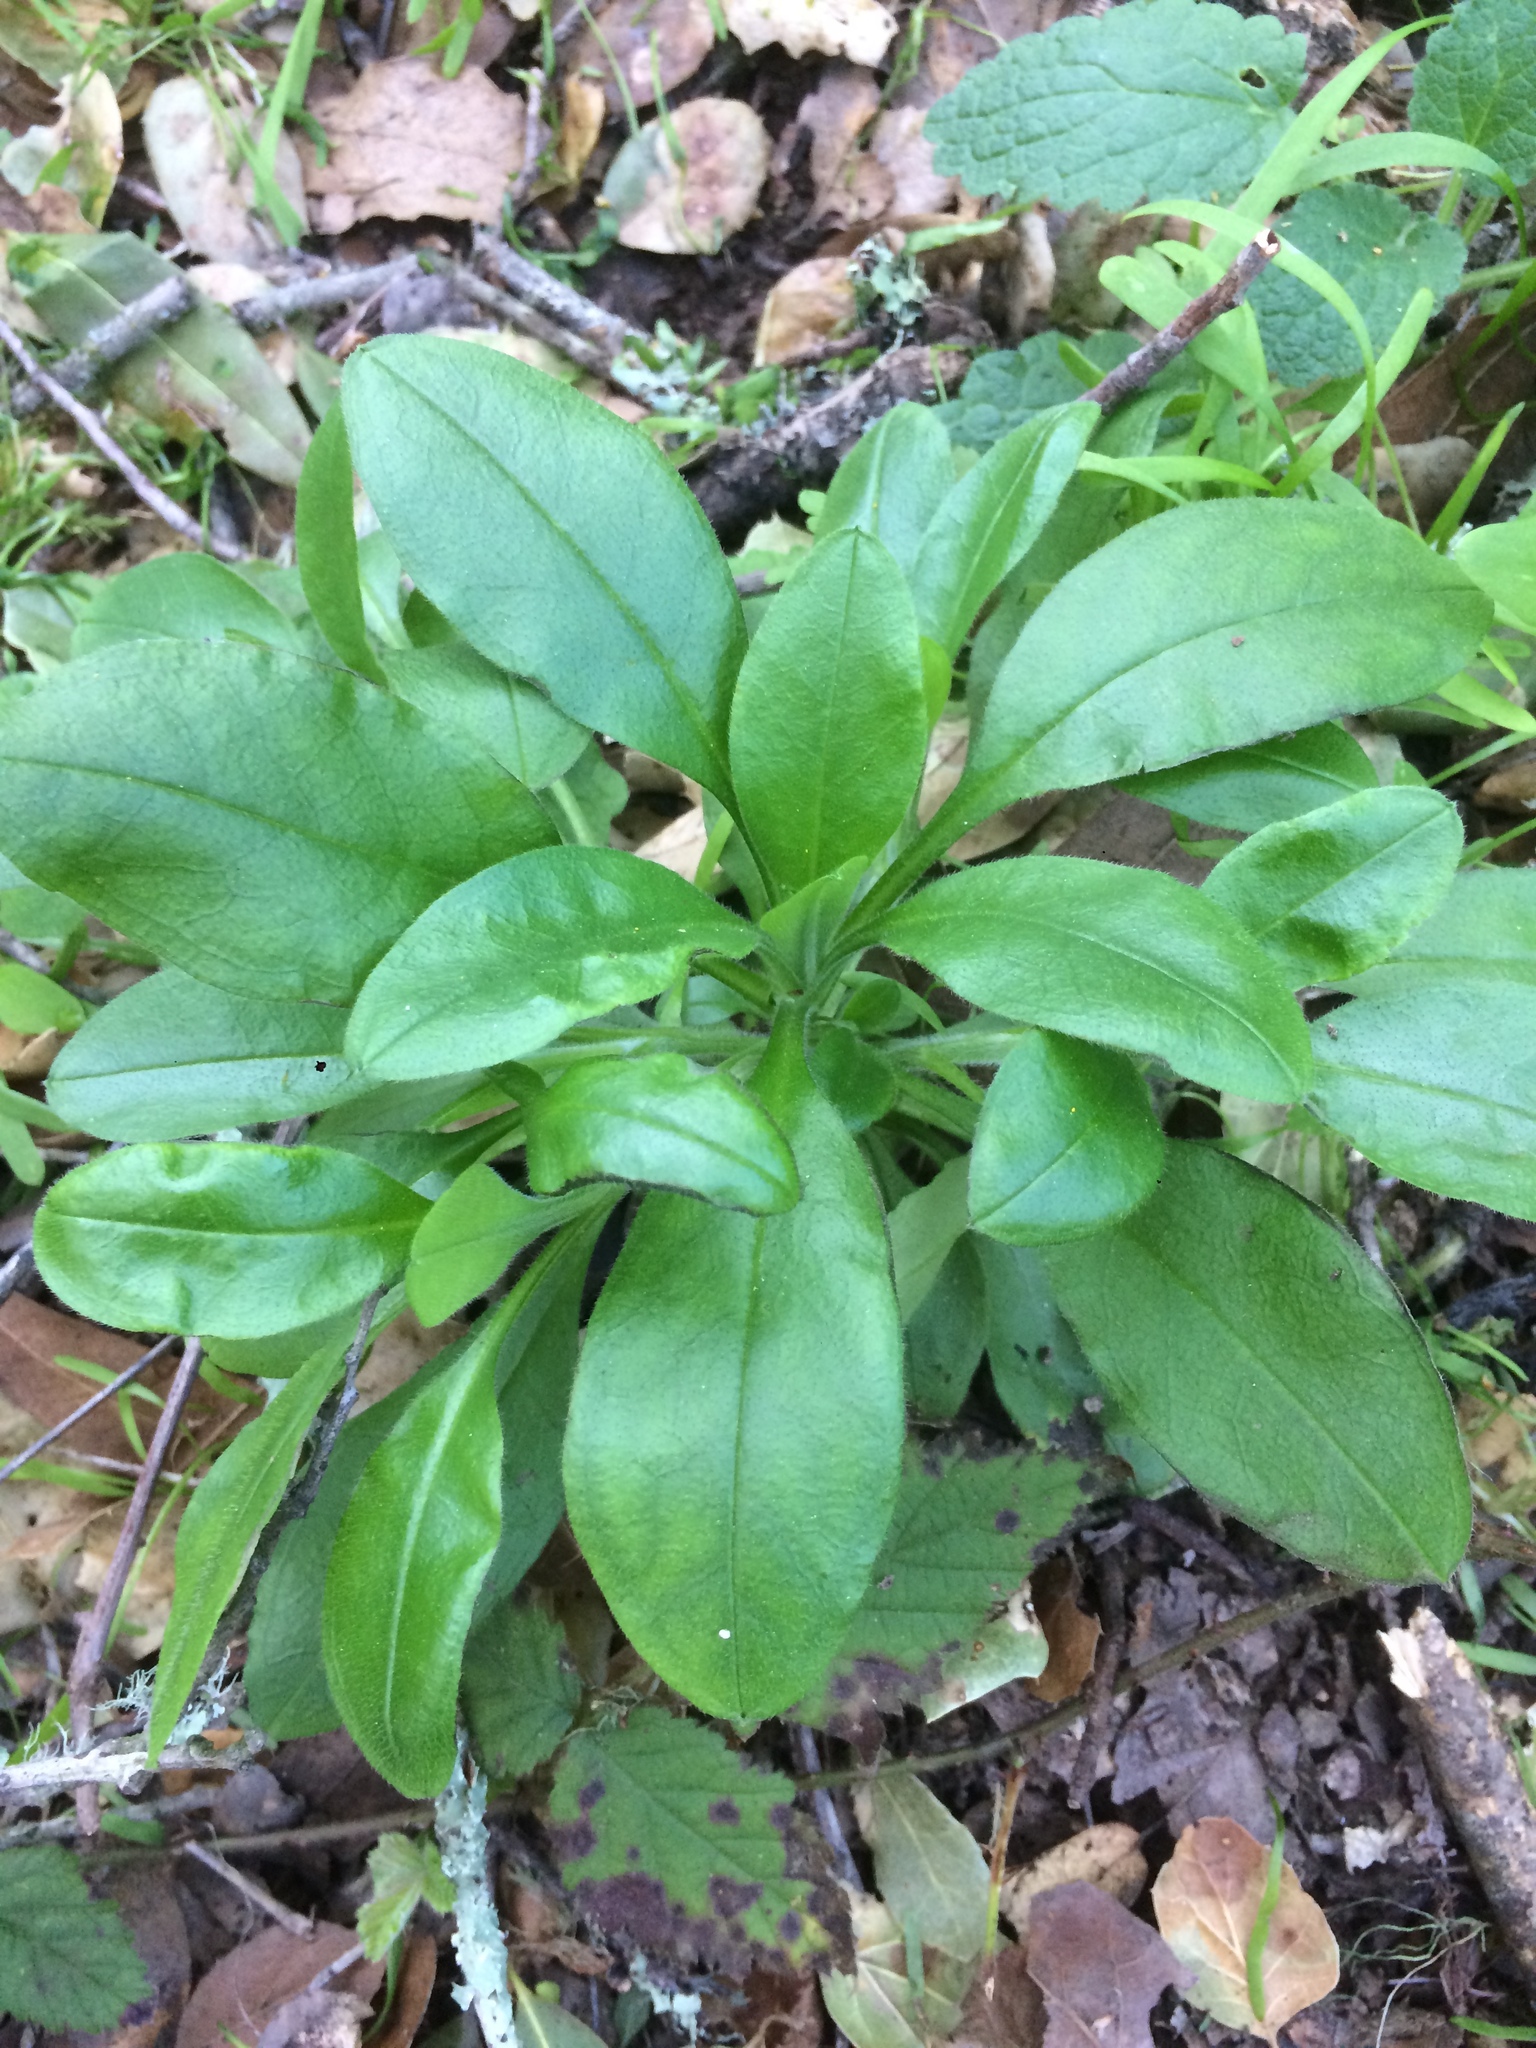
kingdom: Plantae
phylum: Tracheophyta
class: Magnoliopsida
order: Boraginales
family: Boraginaceae
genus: Myosotis
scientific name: Myosotis latifolia
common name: Broadleaf forget-me-not
